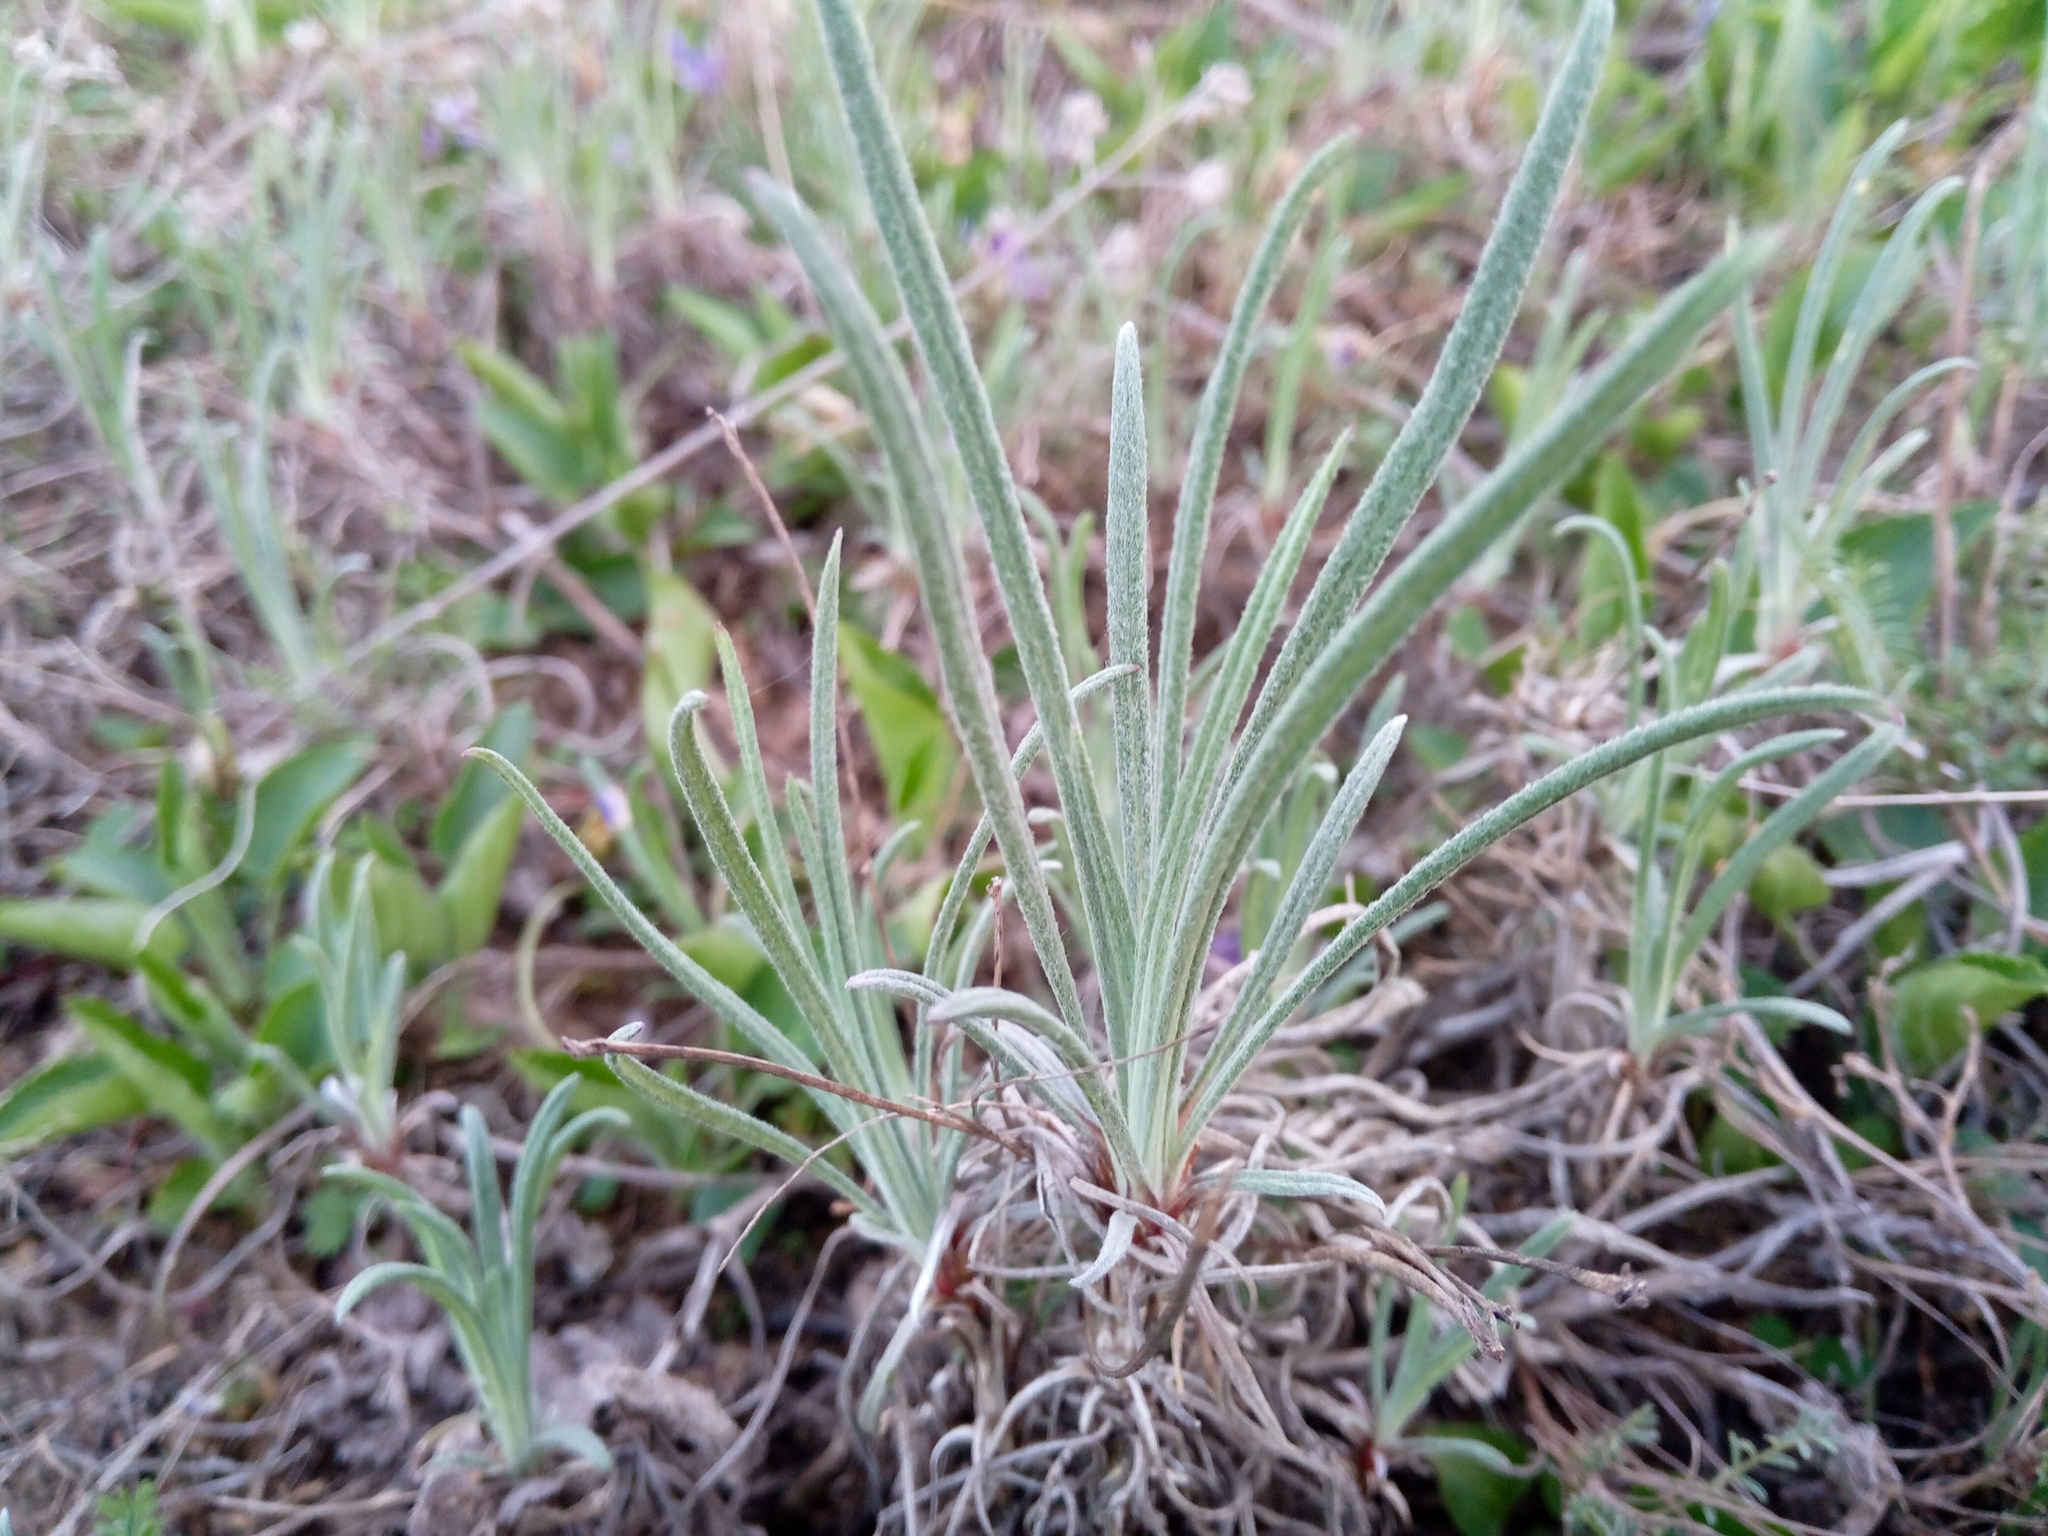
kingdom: Plantae
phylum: Tracheophyta
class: Magnoliopsida
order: Asterales
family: Asteraceae
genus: Jurinea
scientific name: Jurinea stoechadifolia
